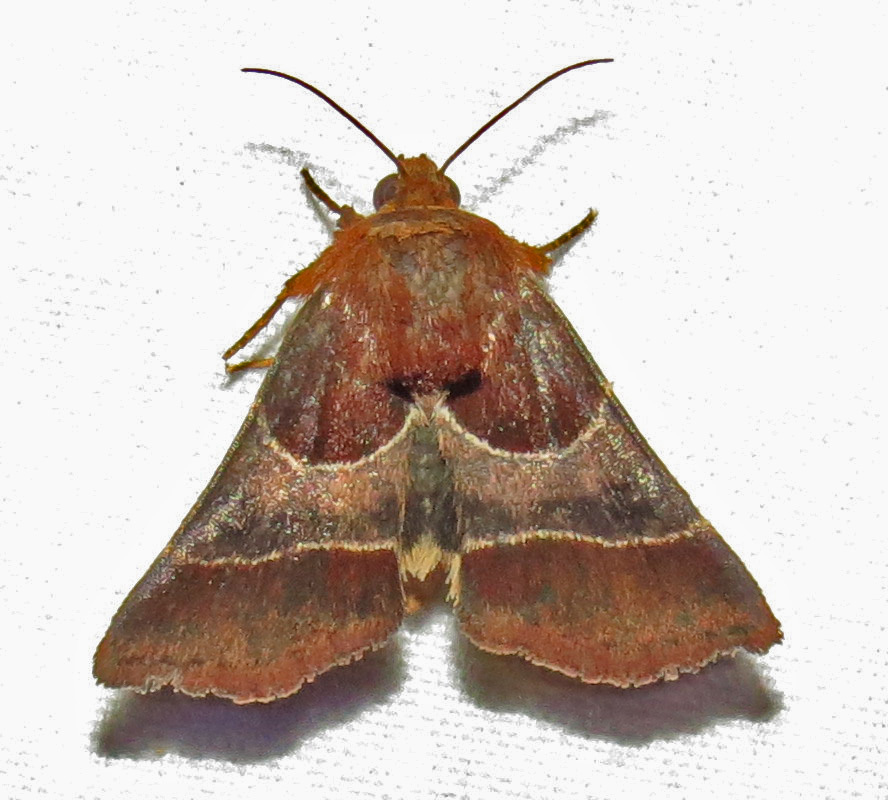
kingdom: Animalia
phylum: Arthropoda
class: Insecta
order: Lepidoptera
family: Noctuidae
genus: Schinia
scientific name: Schinia arcigera
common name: Arcigera flower moth
